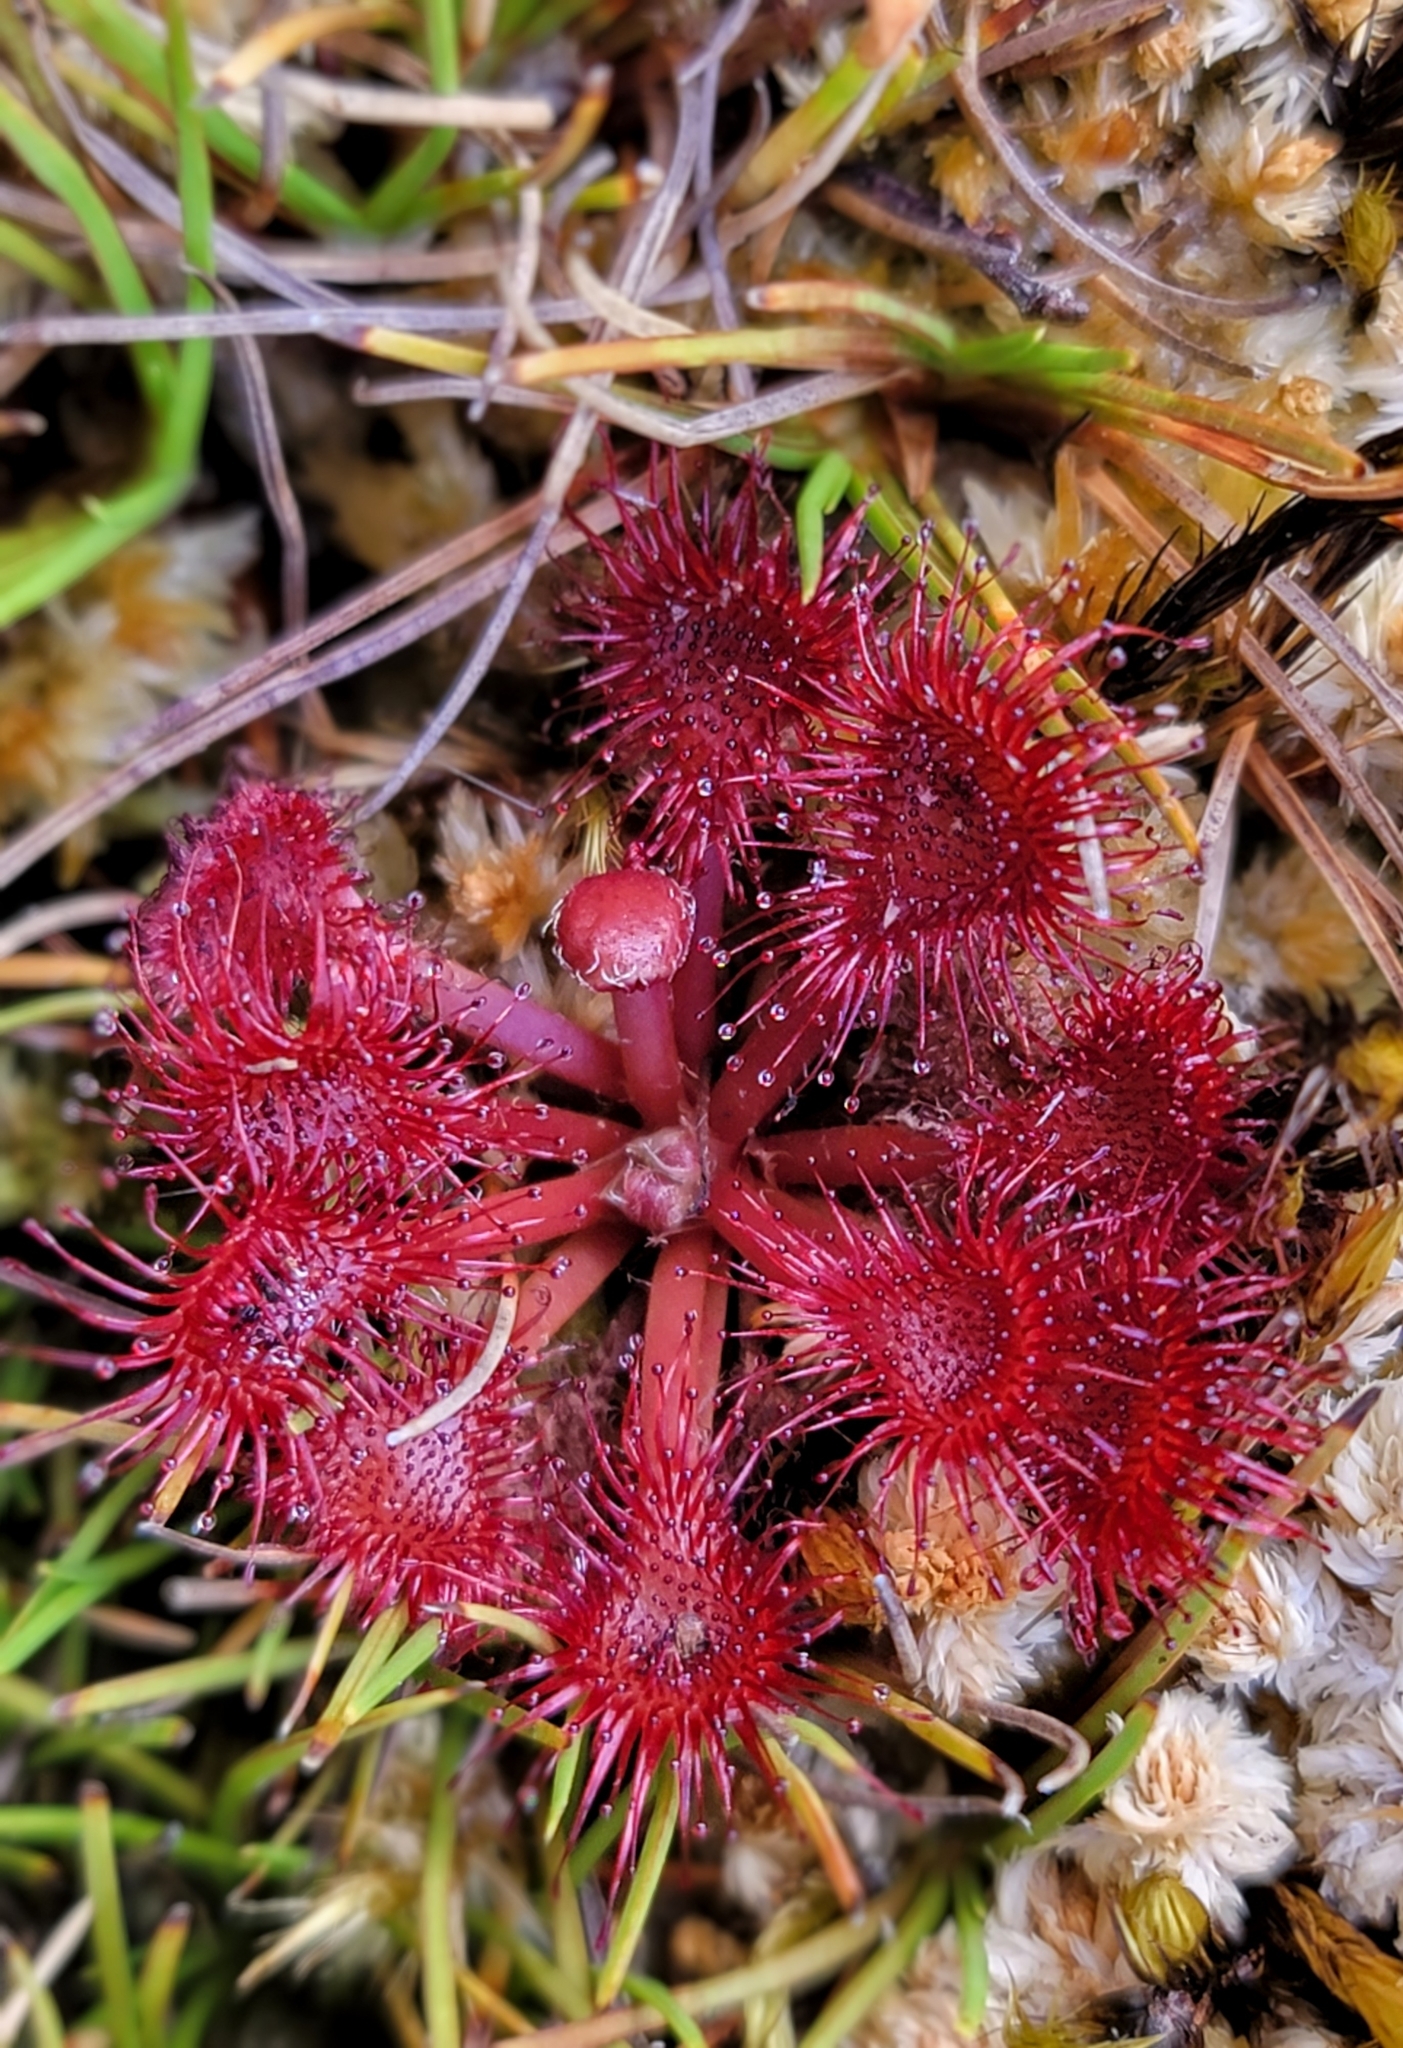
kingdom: Plantae
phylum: Tracheophyta
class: Magnoliopsida
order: Caryophyllales
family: Droseraceae
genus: Drosera
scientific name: Drosera spatulata
